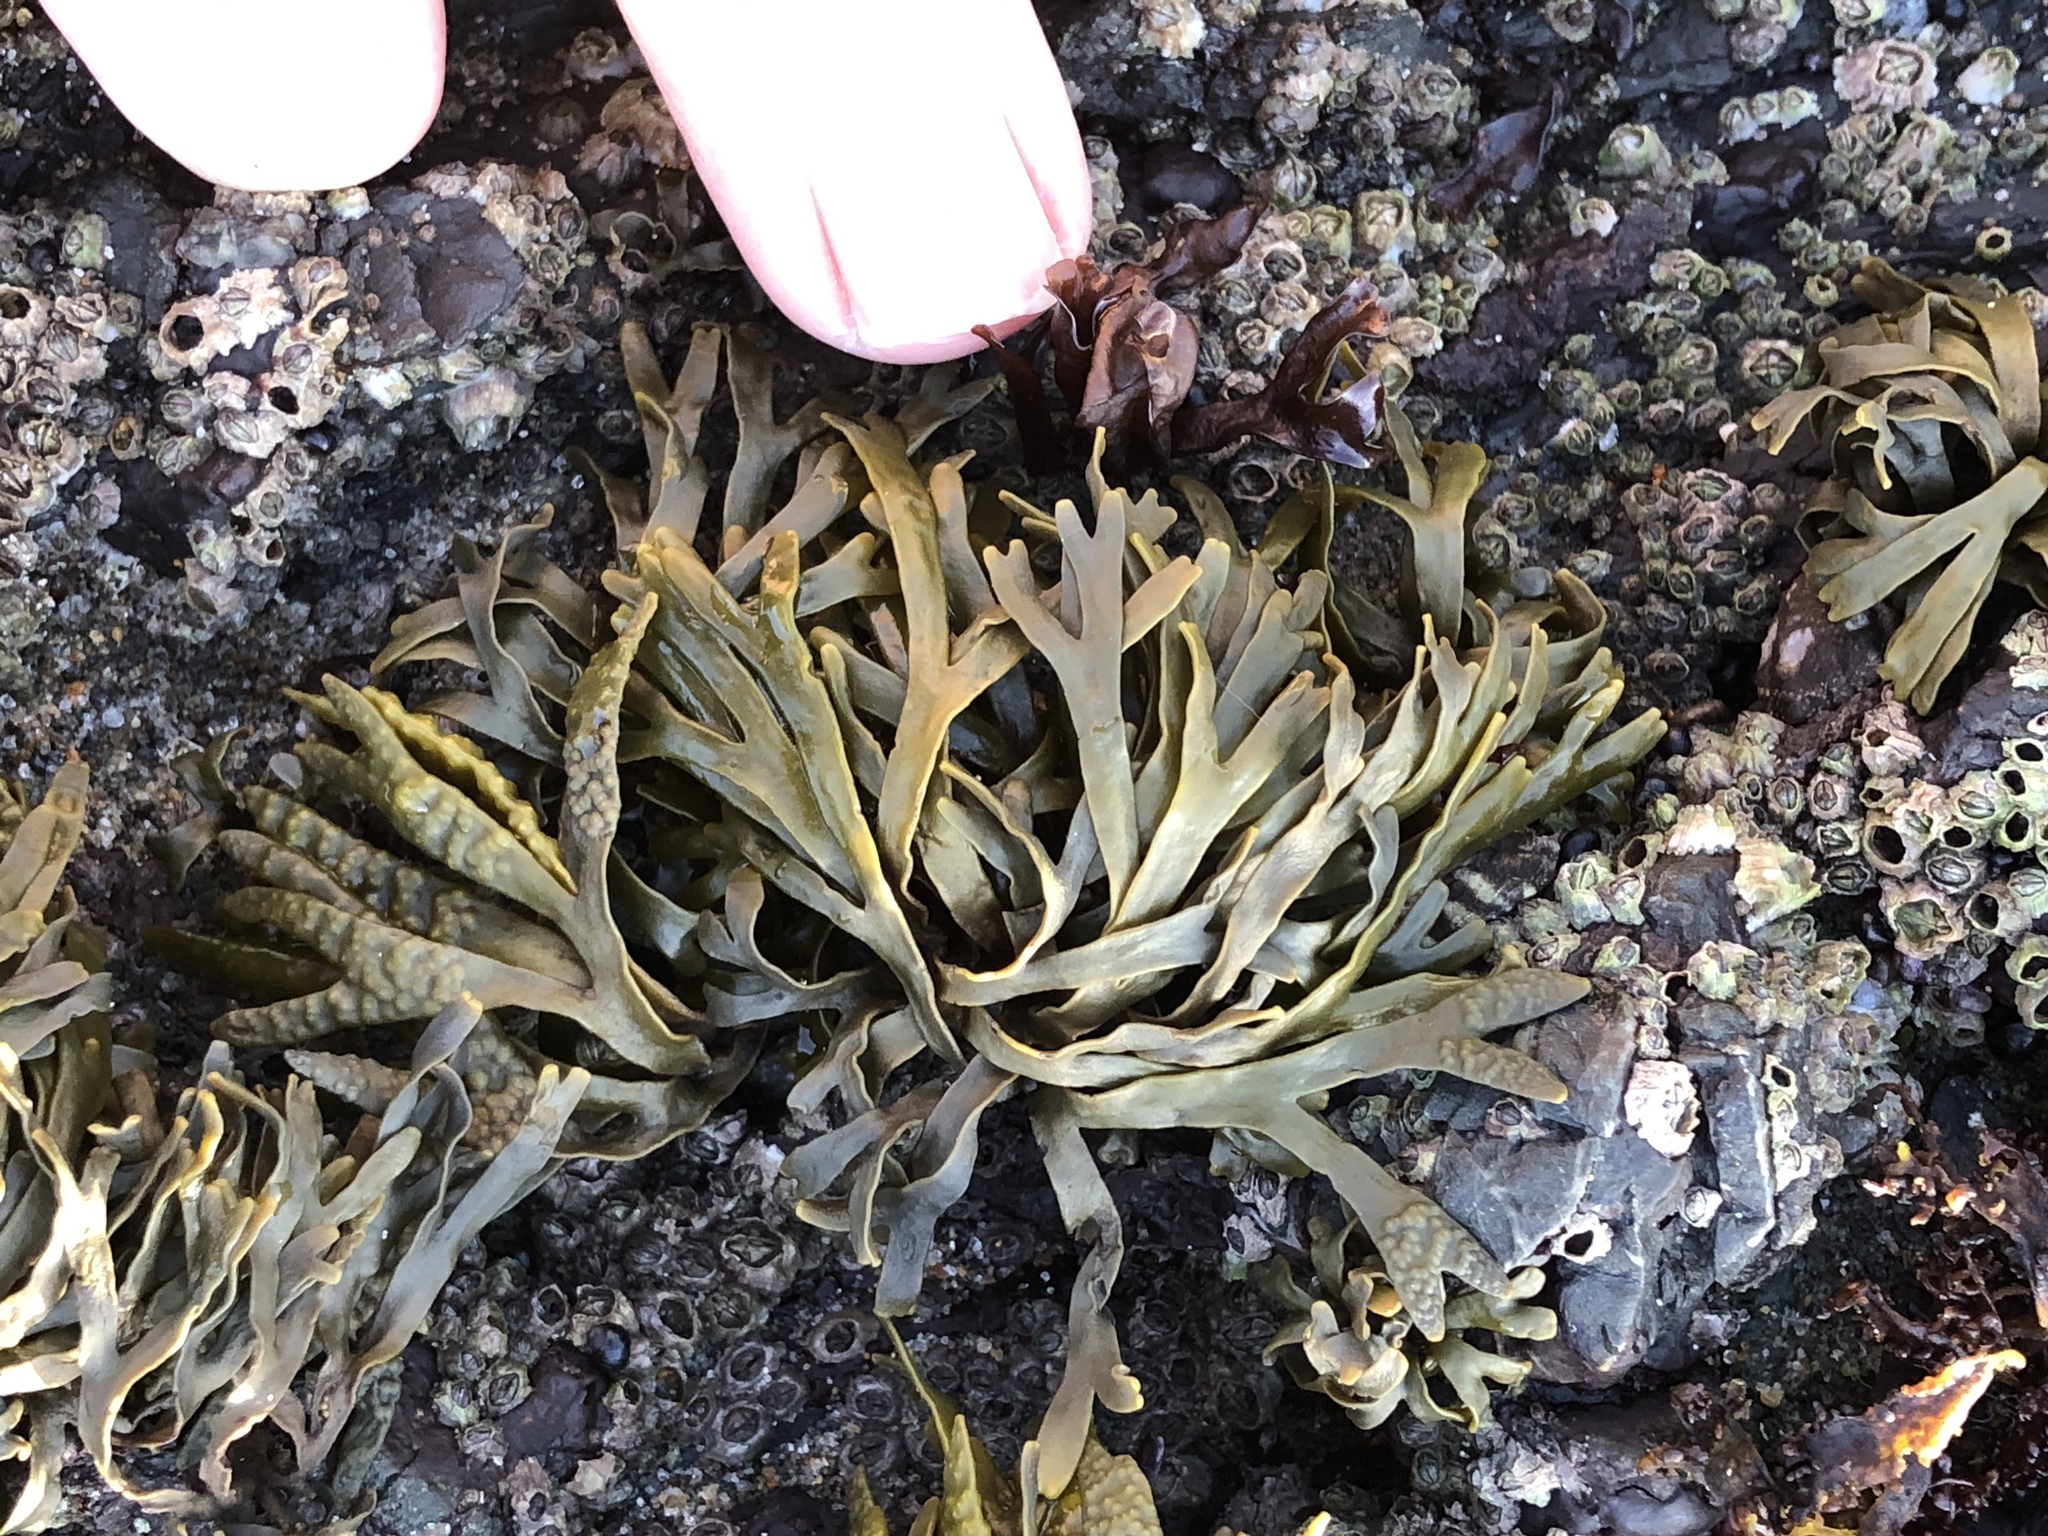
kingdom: Chromista
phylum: Ochrophyta
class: Phaeophyceae
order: Fucales
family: Fucaceae
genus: Pelvetiopsis
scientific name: Pelvetiopsis limitata
